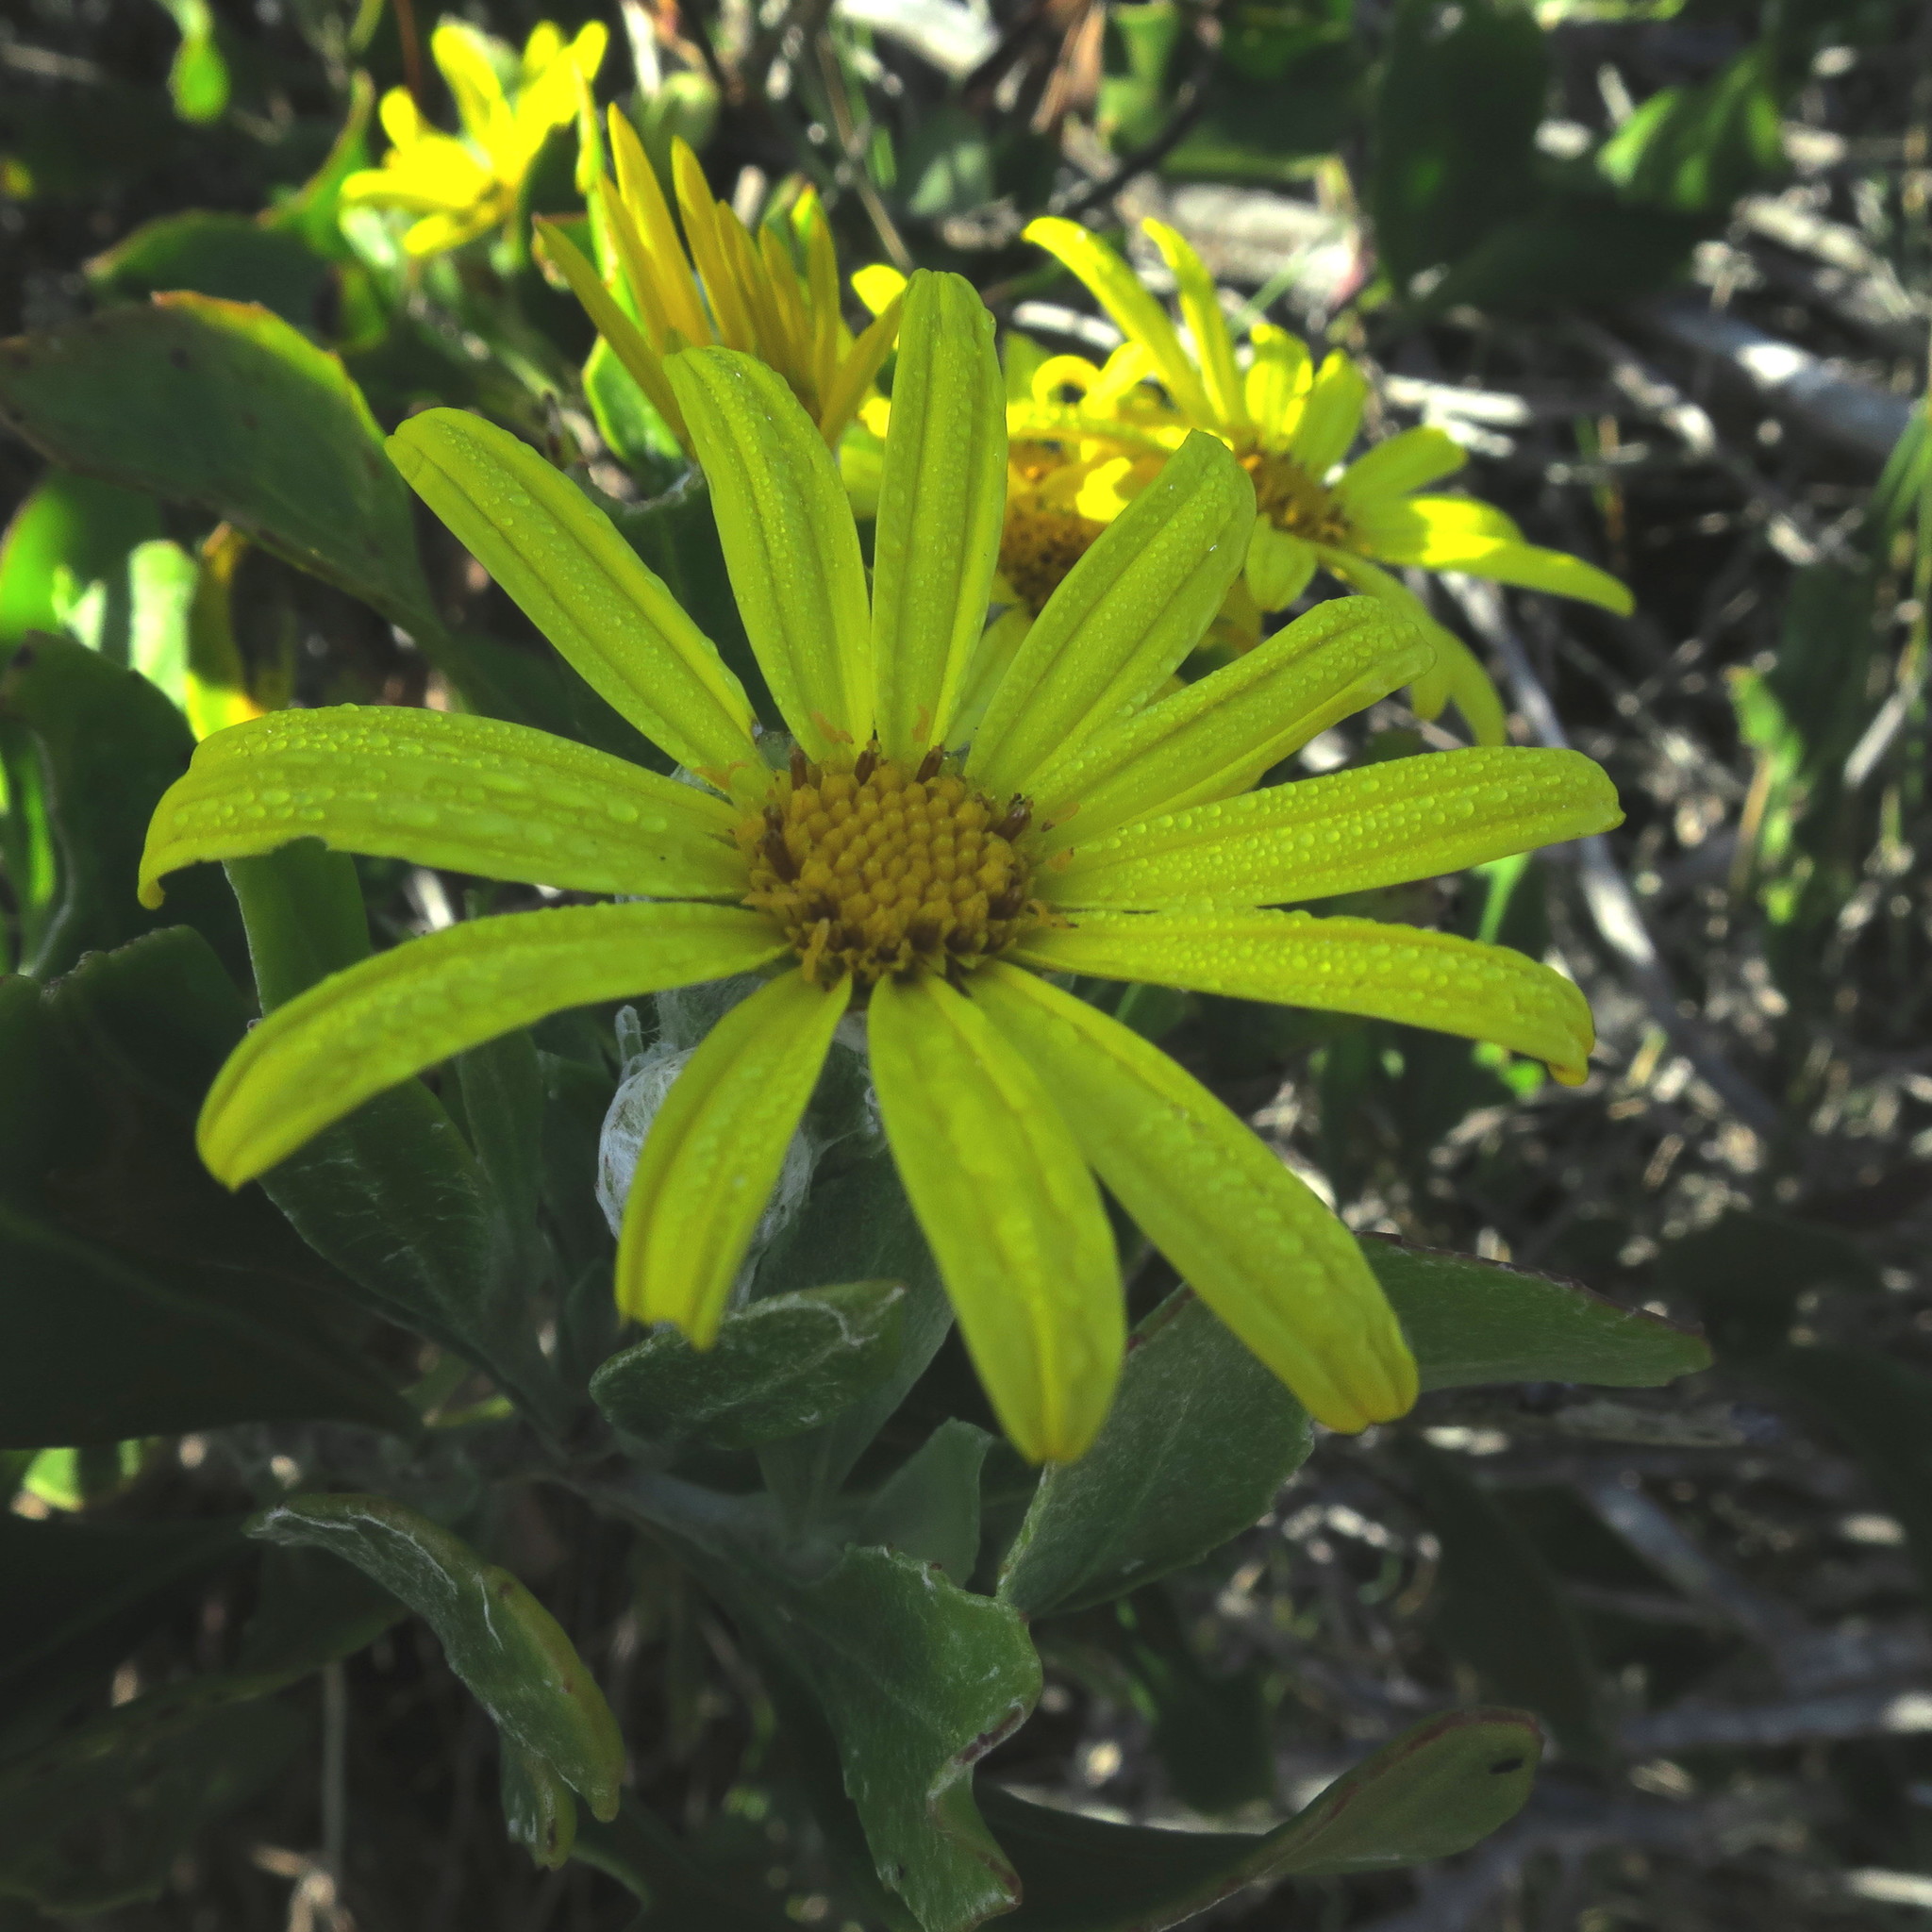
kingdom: Plantae
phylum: Tracheophyta
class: Magnoliopsida
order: Asterales
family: Asteraceae
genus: Osteospermum
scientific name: Osteospermum moniliferum
